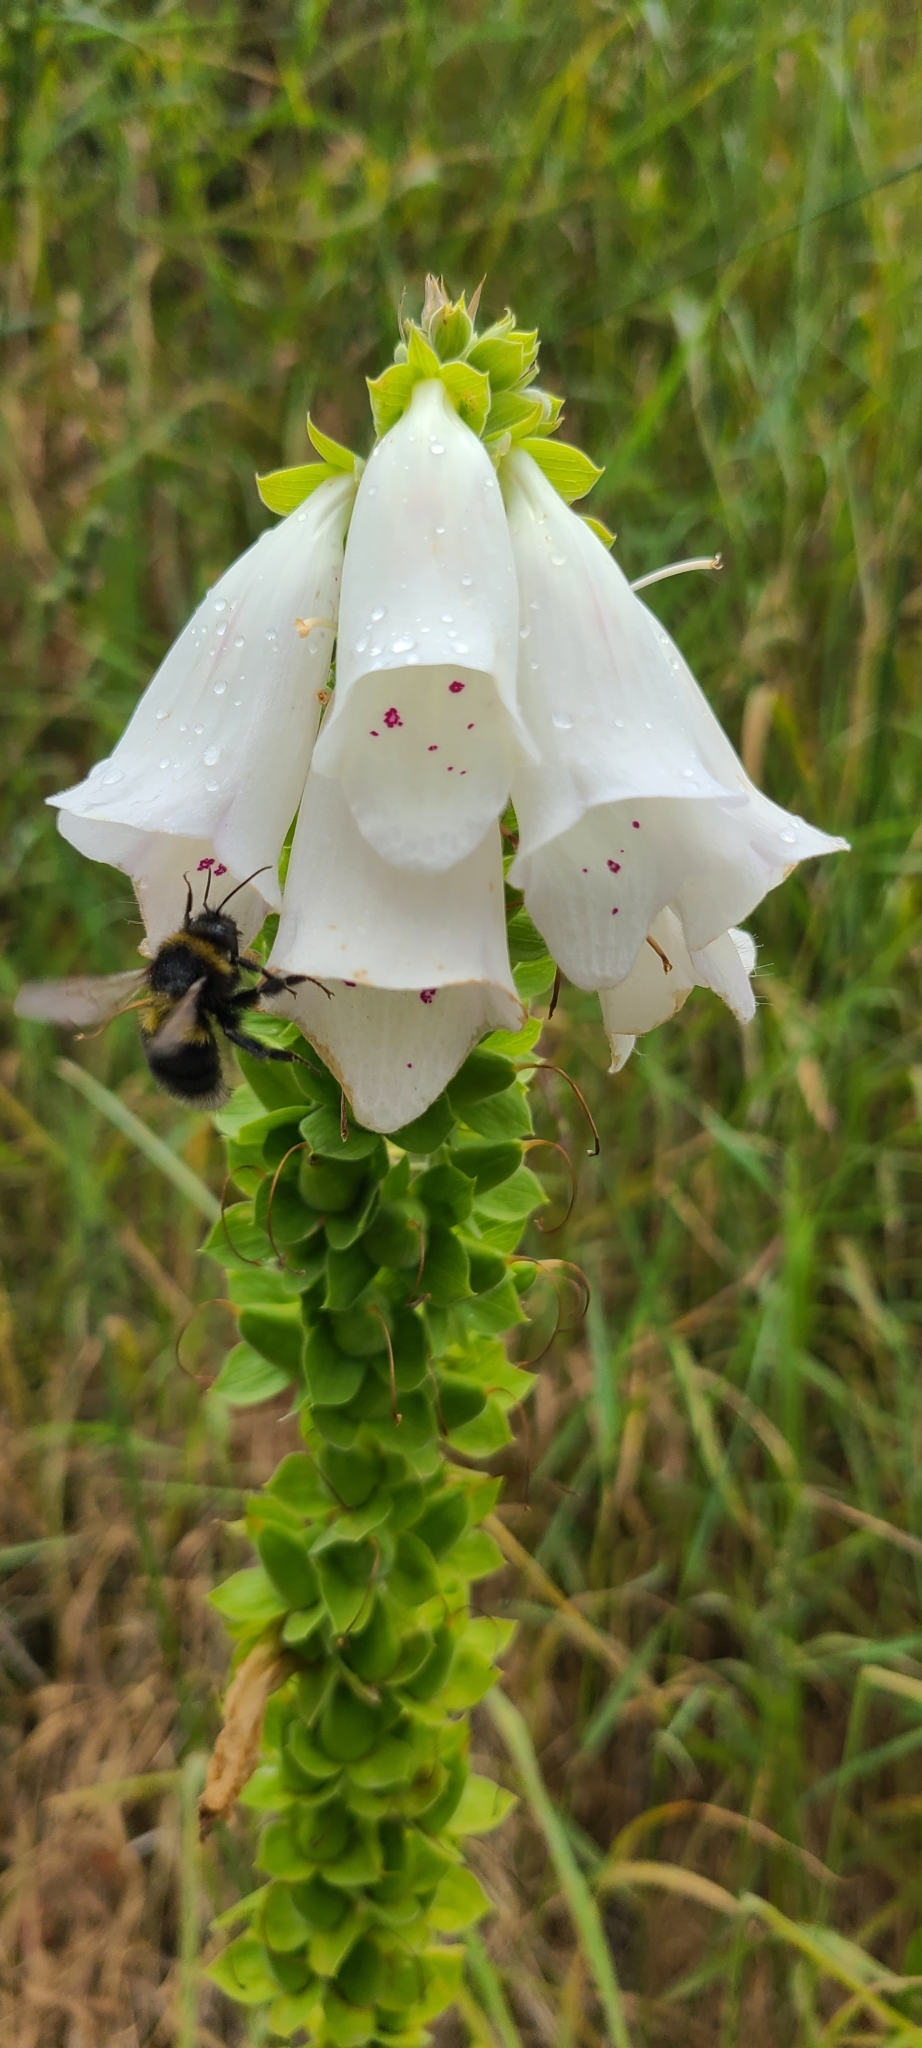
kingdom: Plantae
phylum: Tracheophyta
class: Magnoliopsida
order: Lamiales
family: Plantaginaceae
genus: Digitalis
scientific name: Digitalis purpurea
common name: Foxglove
